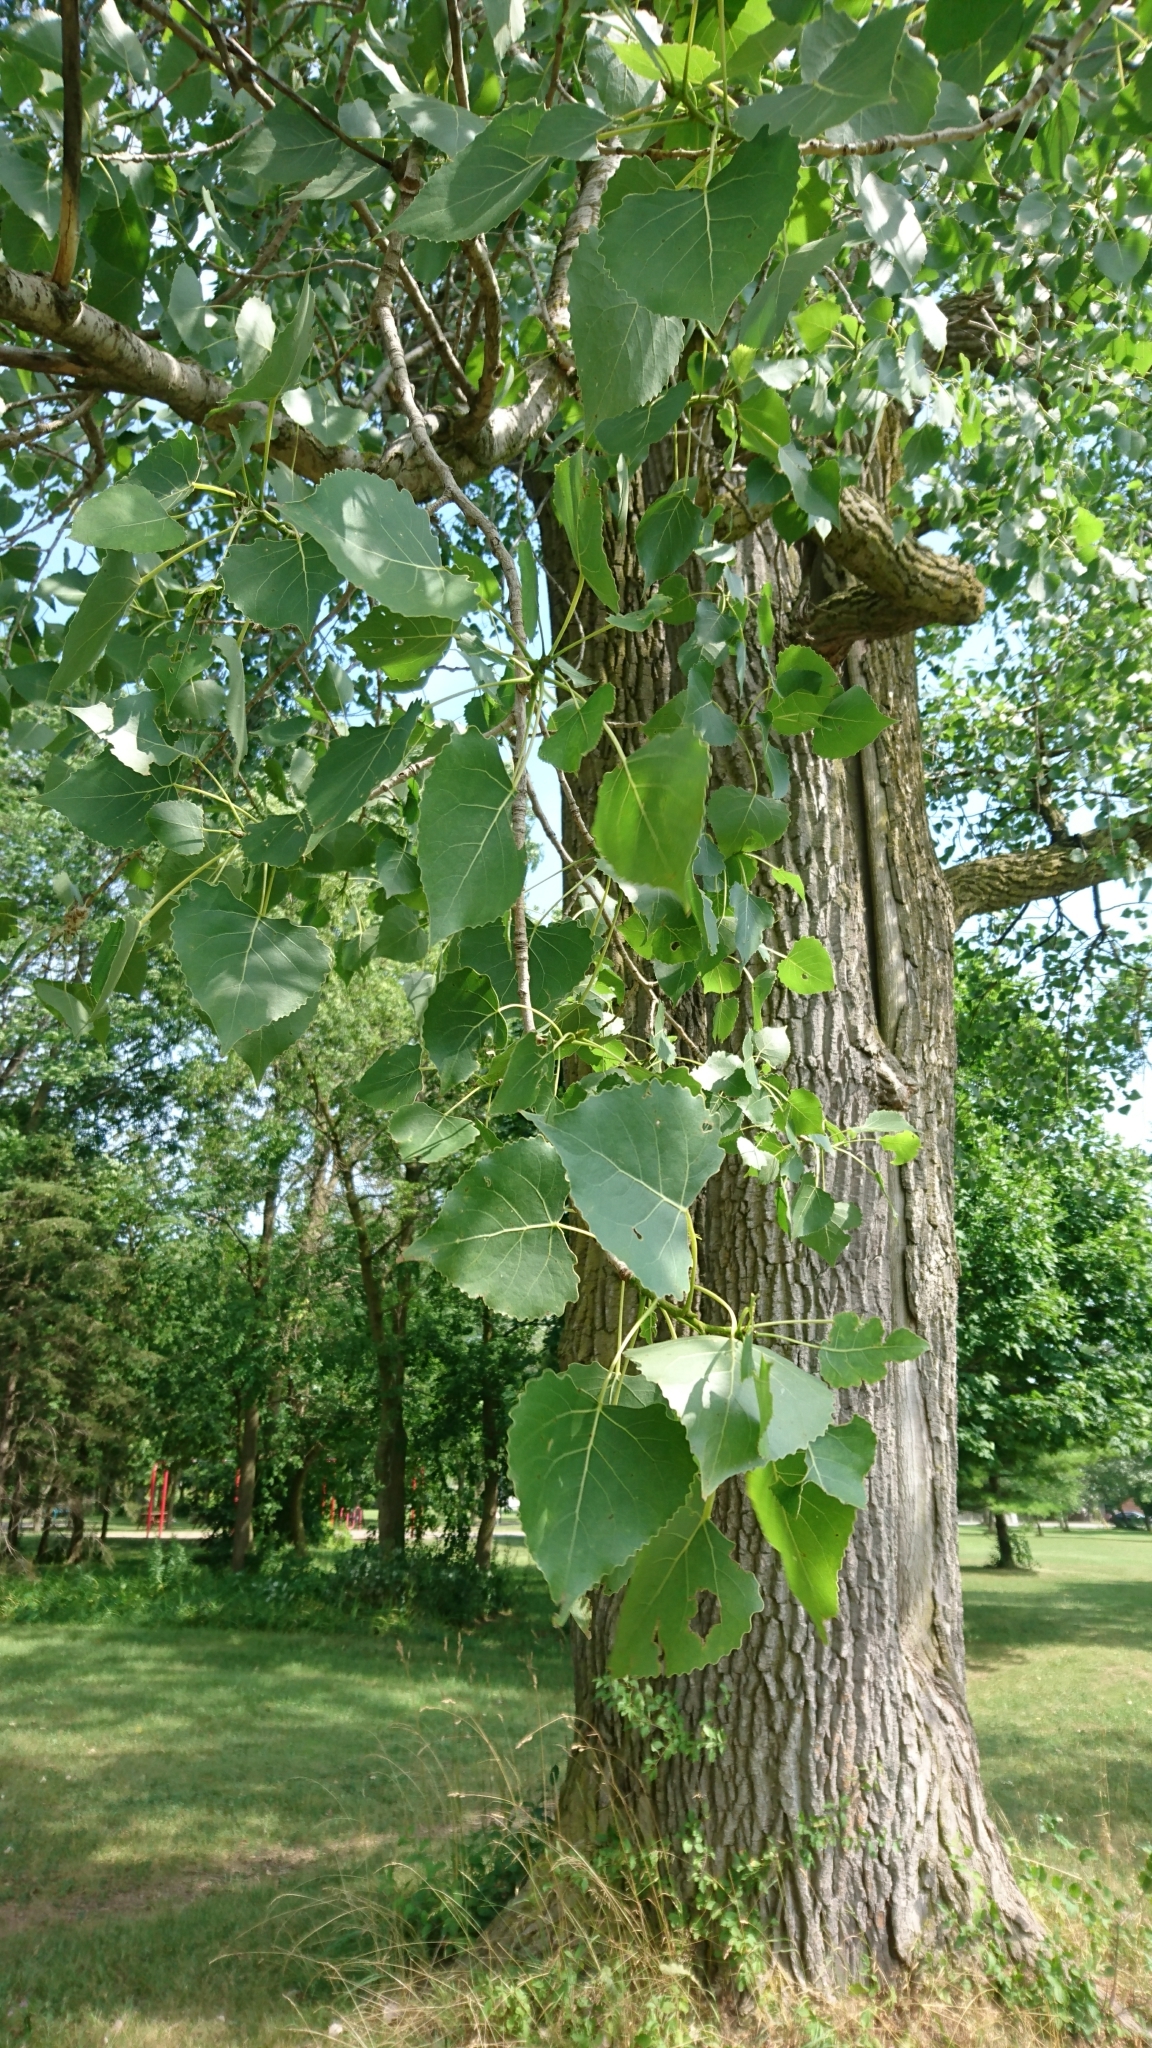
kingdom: Plantae
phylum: Tracheophyta
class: Magnoliopsida
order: Malpighiales
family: Salicaceae
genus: Populus
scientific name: Populus deltoides
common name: Eastern cottonwood
